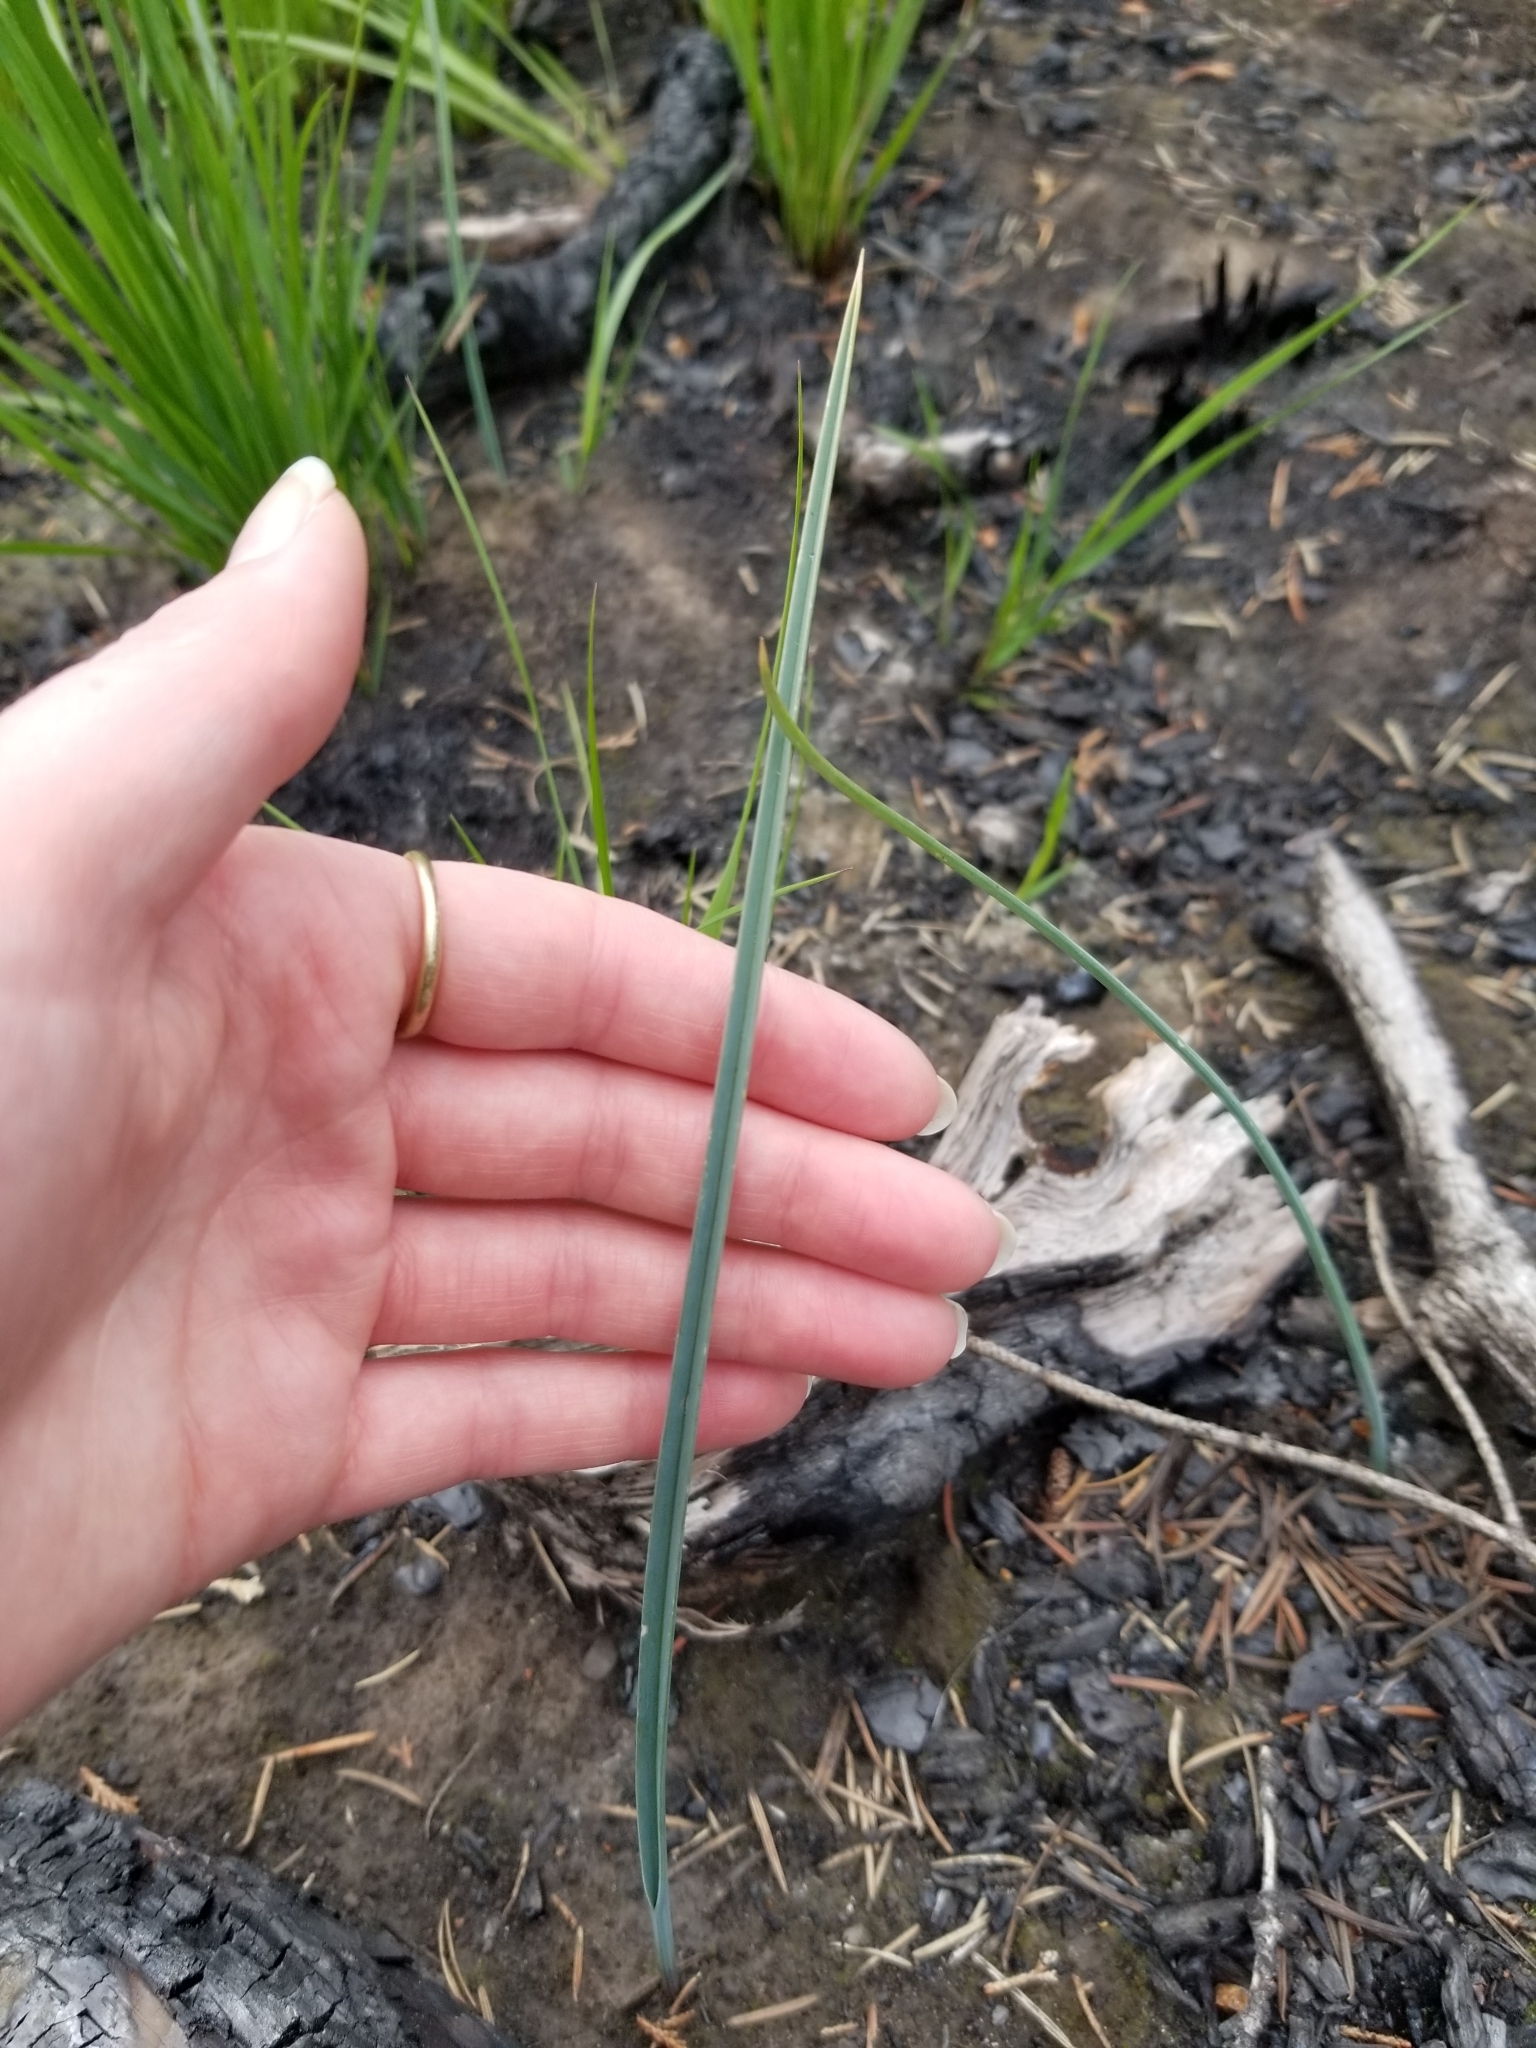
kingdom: Plantae
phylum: Tracheophyta
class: Liliopsida
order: Liliales
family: Liliaceae
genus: Calochortus
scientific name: Calochortus macrocarpus
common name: Green-band mariposa lily
